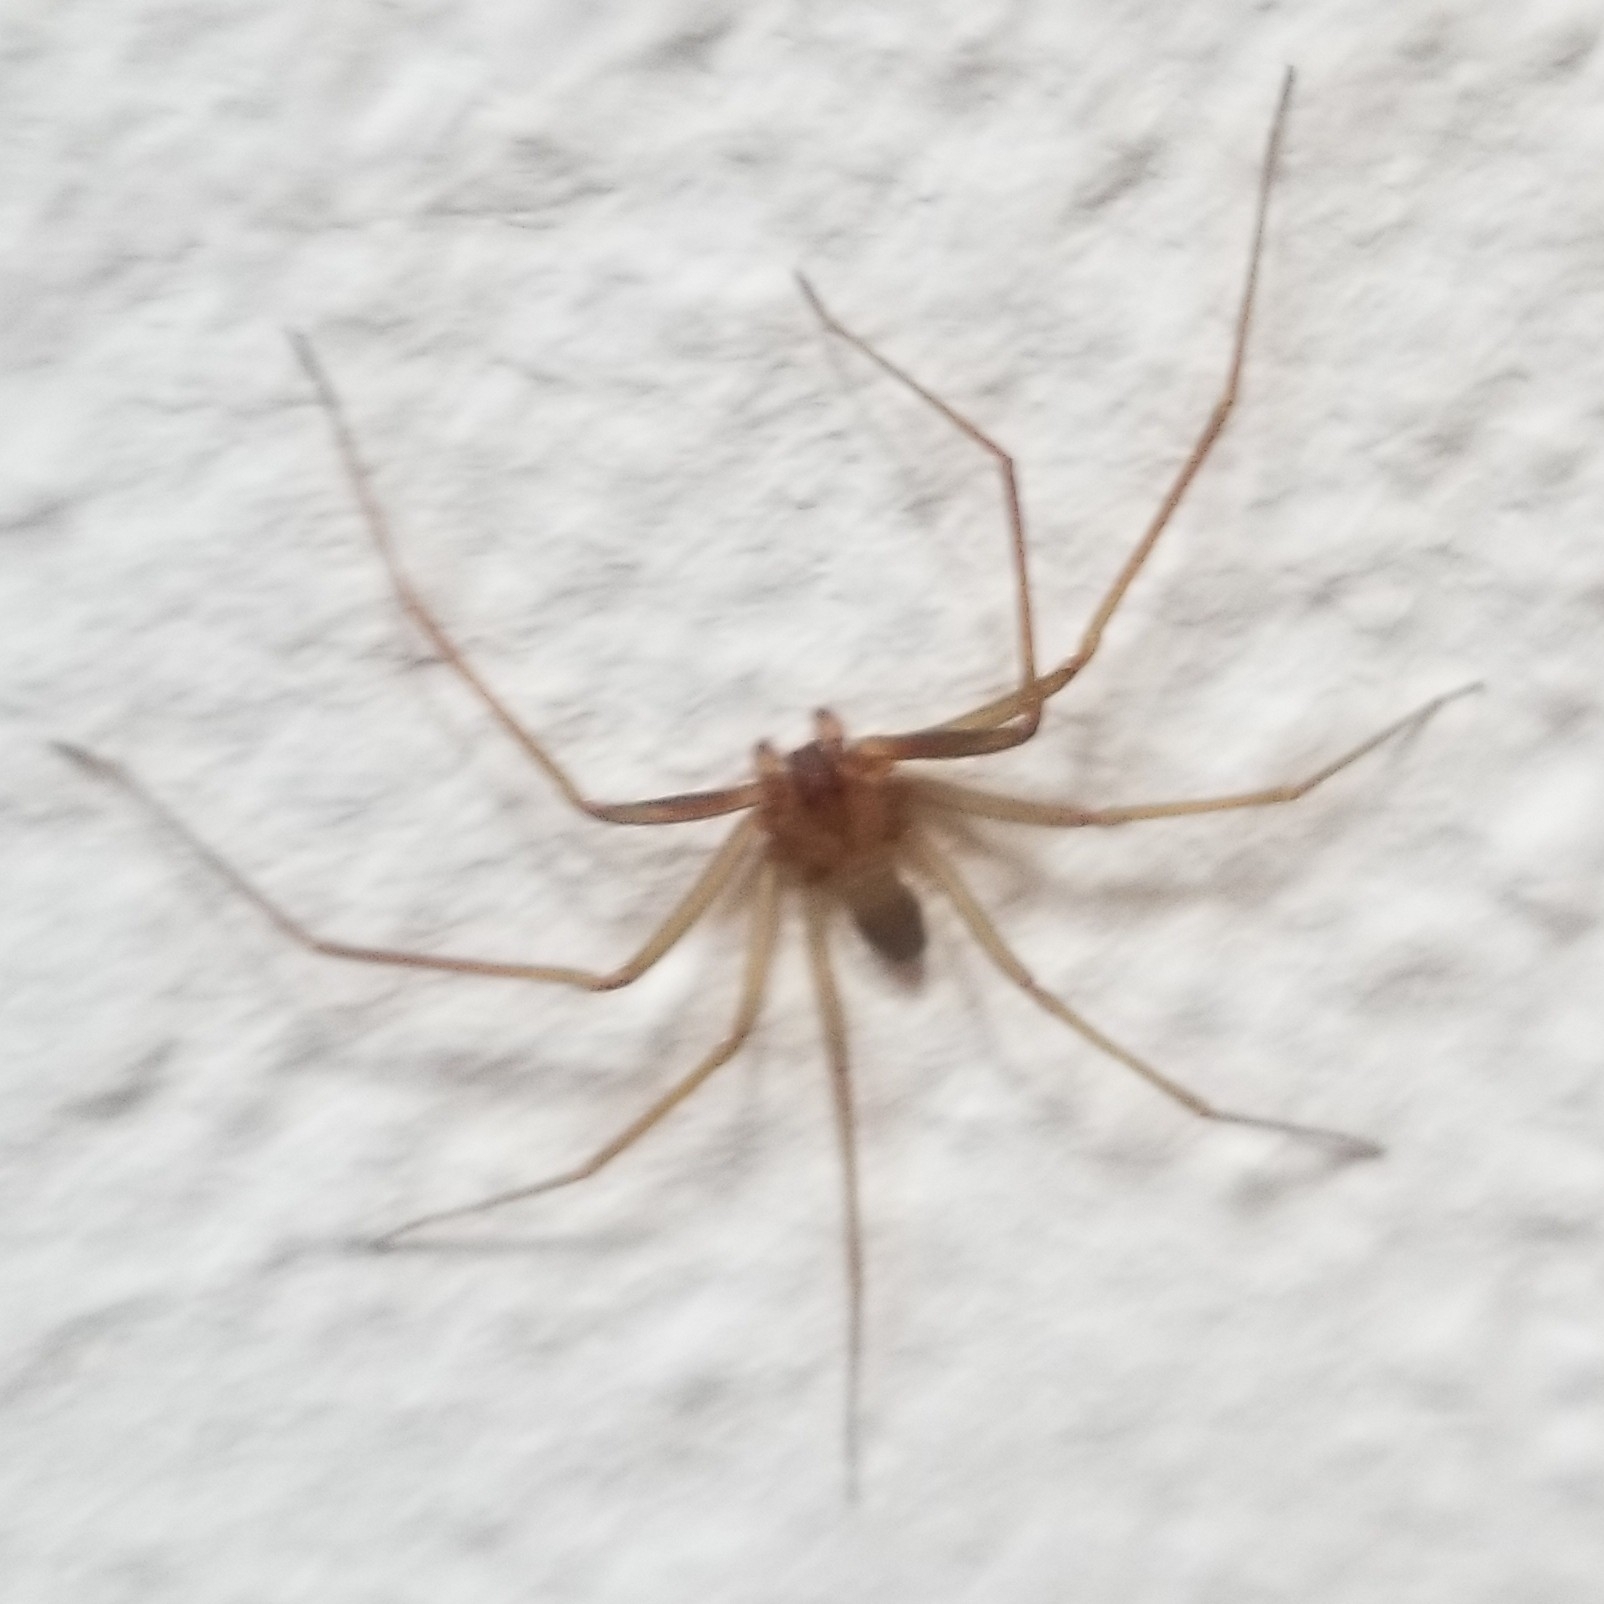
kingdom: Animalia
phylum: Arthropoda
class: Arachnida
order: Araneae
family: Sicariidae
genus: Loxosceles
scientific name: Loxosceles rufescens
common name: Mediterranean recluse spider
